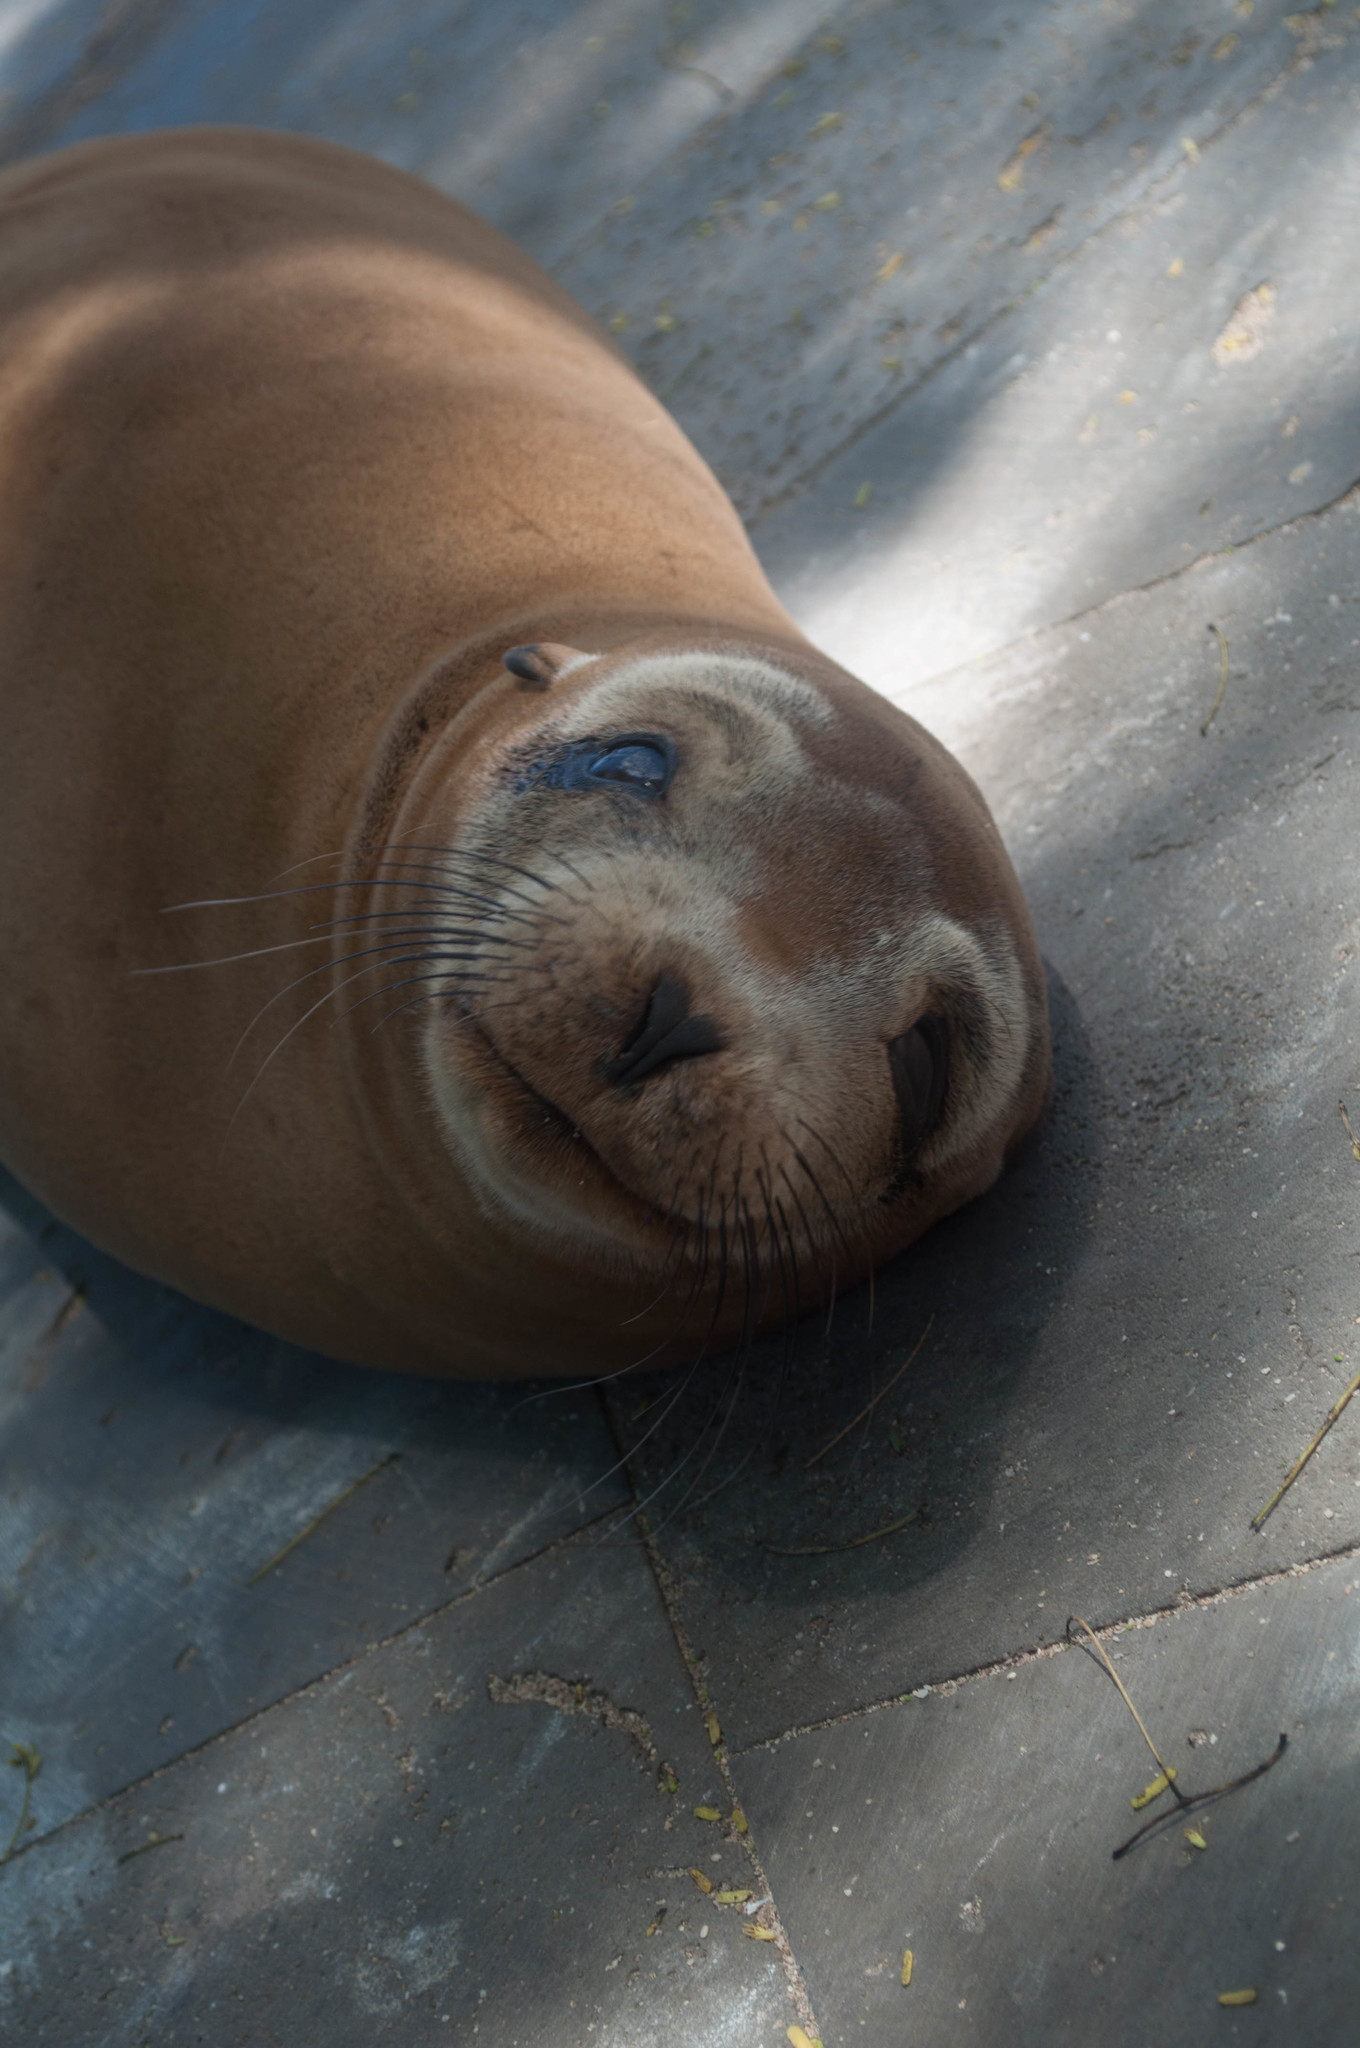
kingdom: Animalia
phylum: Chordata
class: Mammalia
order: Carnivora
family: Otariidae
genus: Zalophus
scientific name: Zalophus wollebaeki
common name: Galapagos sea lion
